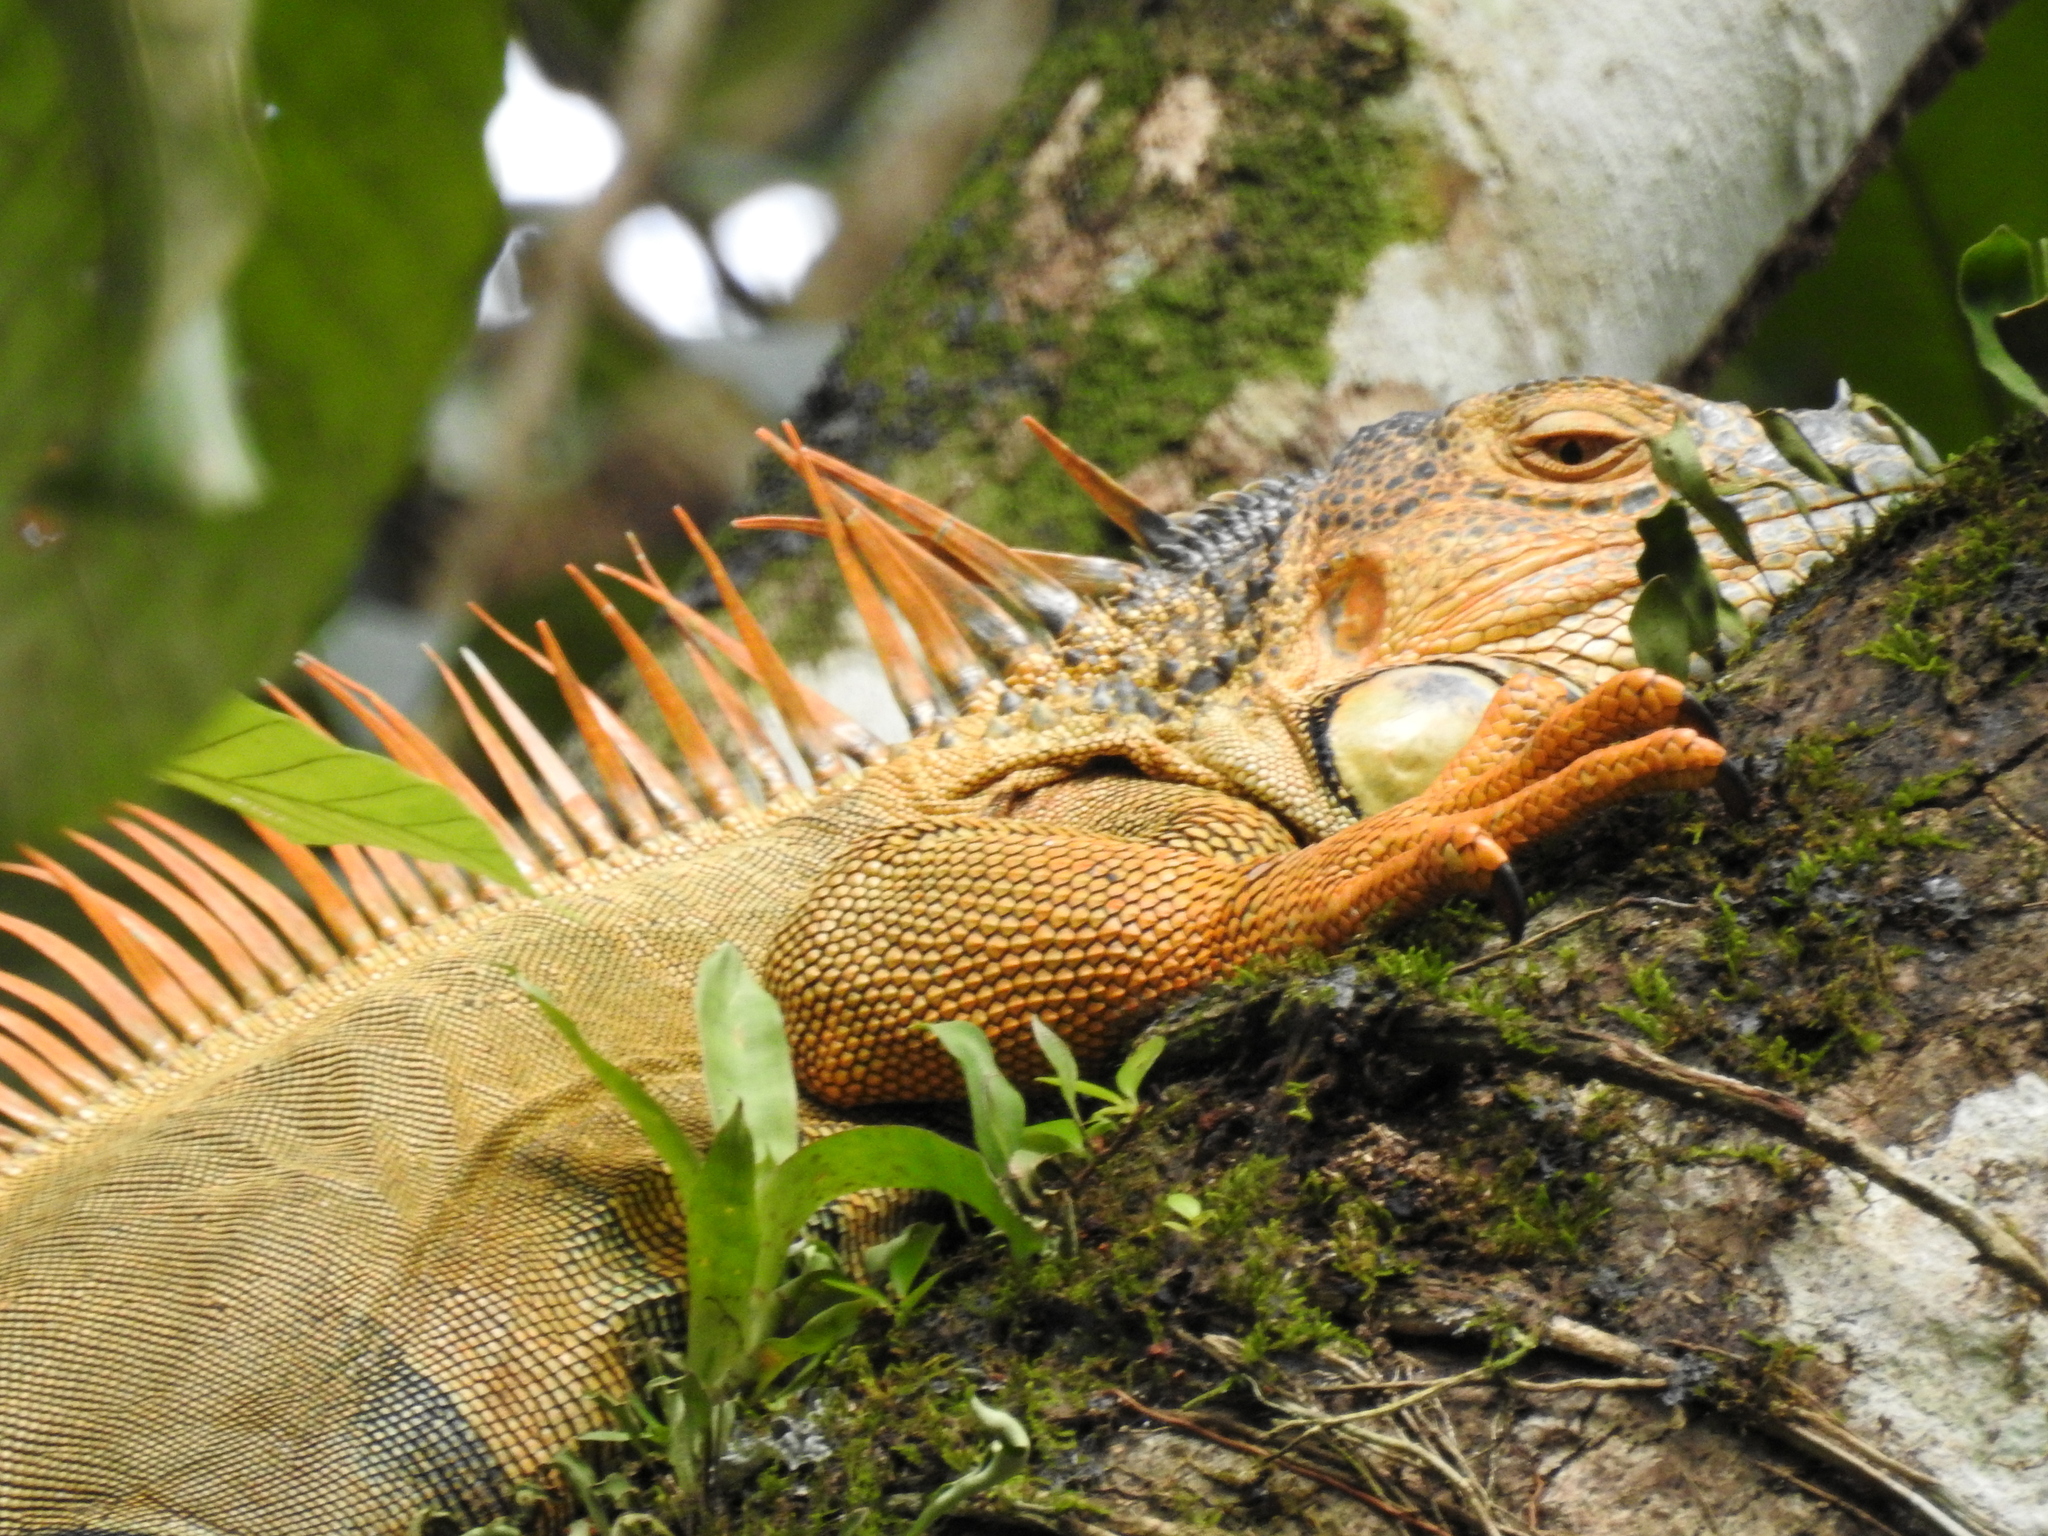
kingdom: Animalia
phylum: Chordata
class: Squamata
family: Iguanidae
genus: Iguana
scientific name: Iguana iguana
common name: Green iguana
